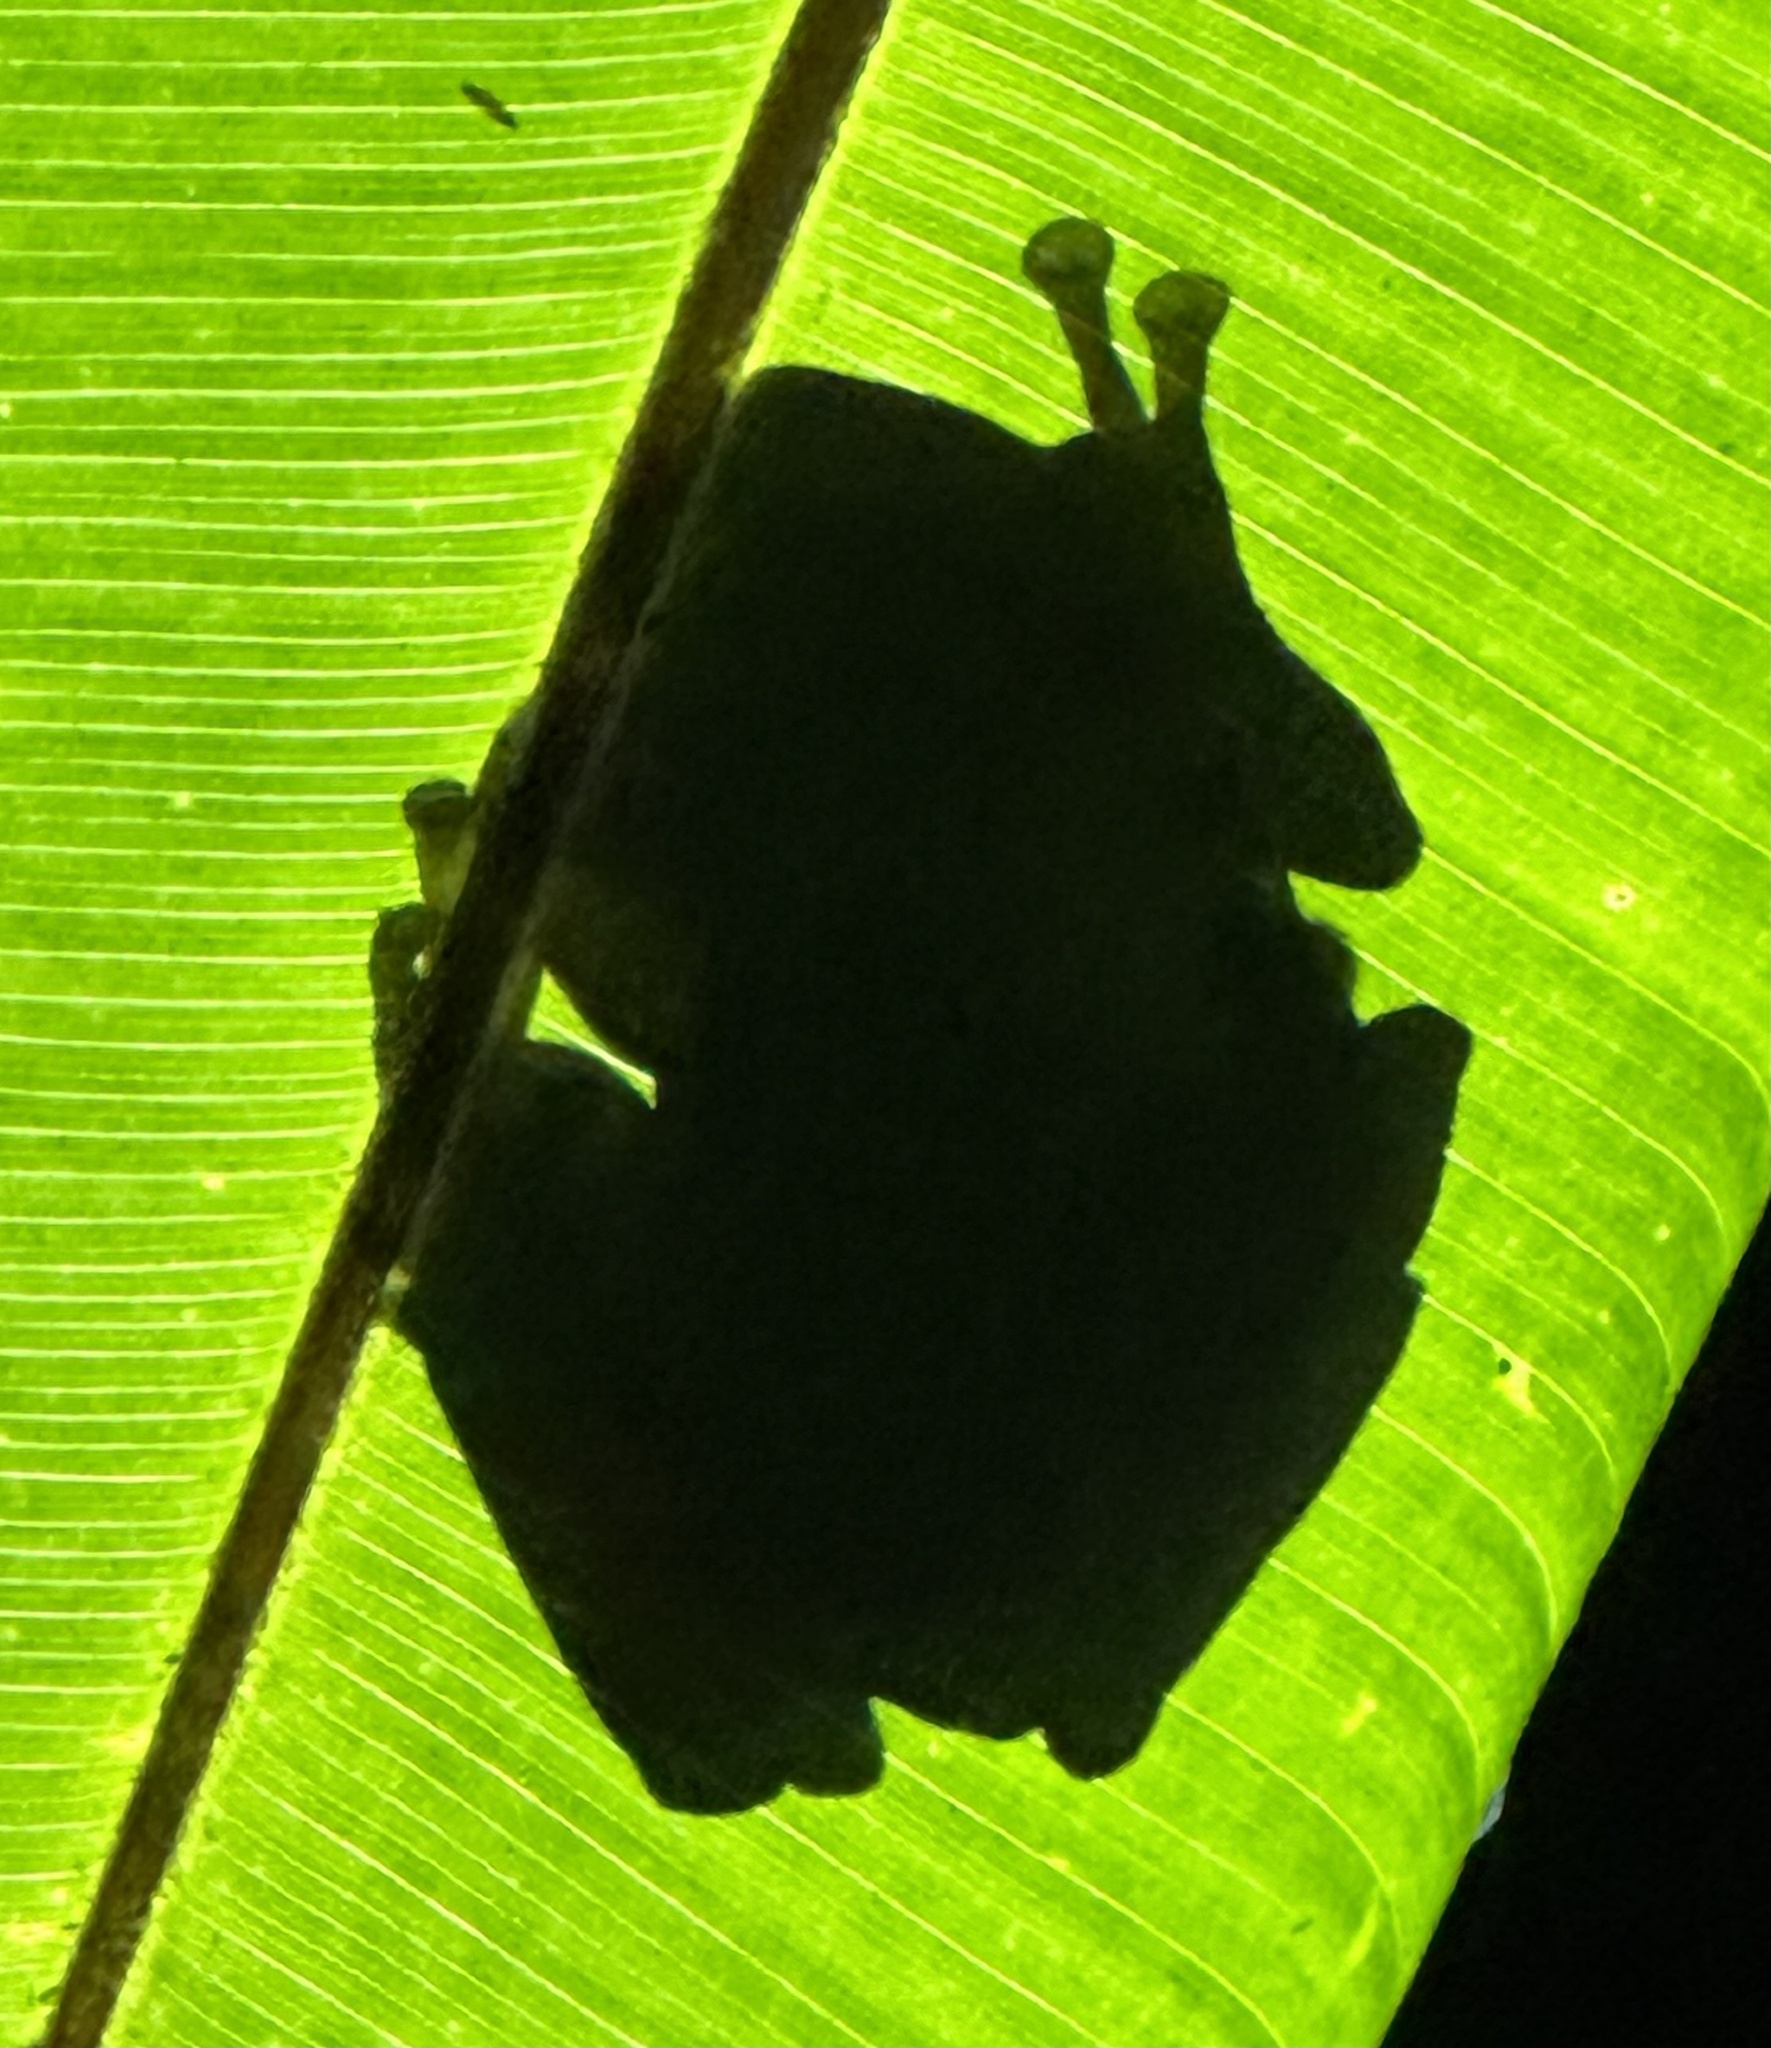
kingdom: Animalia
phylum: Chordata
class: Amphibia
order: Anura
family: Hylidae
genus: Smilisca
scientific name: Smilisca phaeota
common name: Central american smilisca
